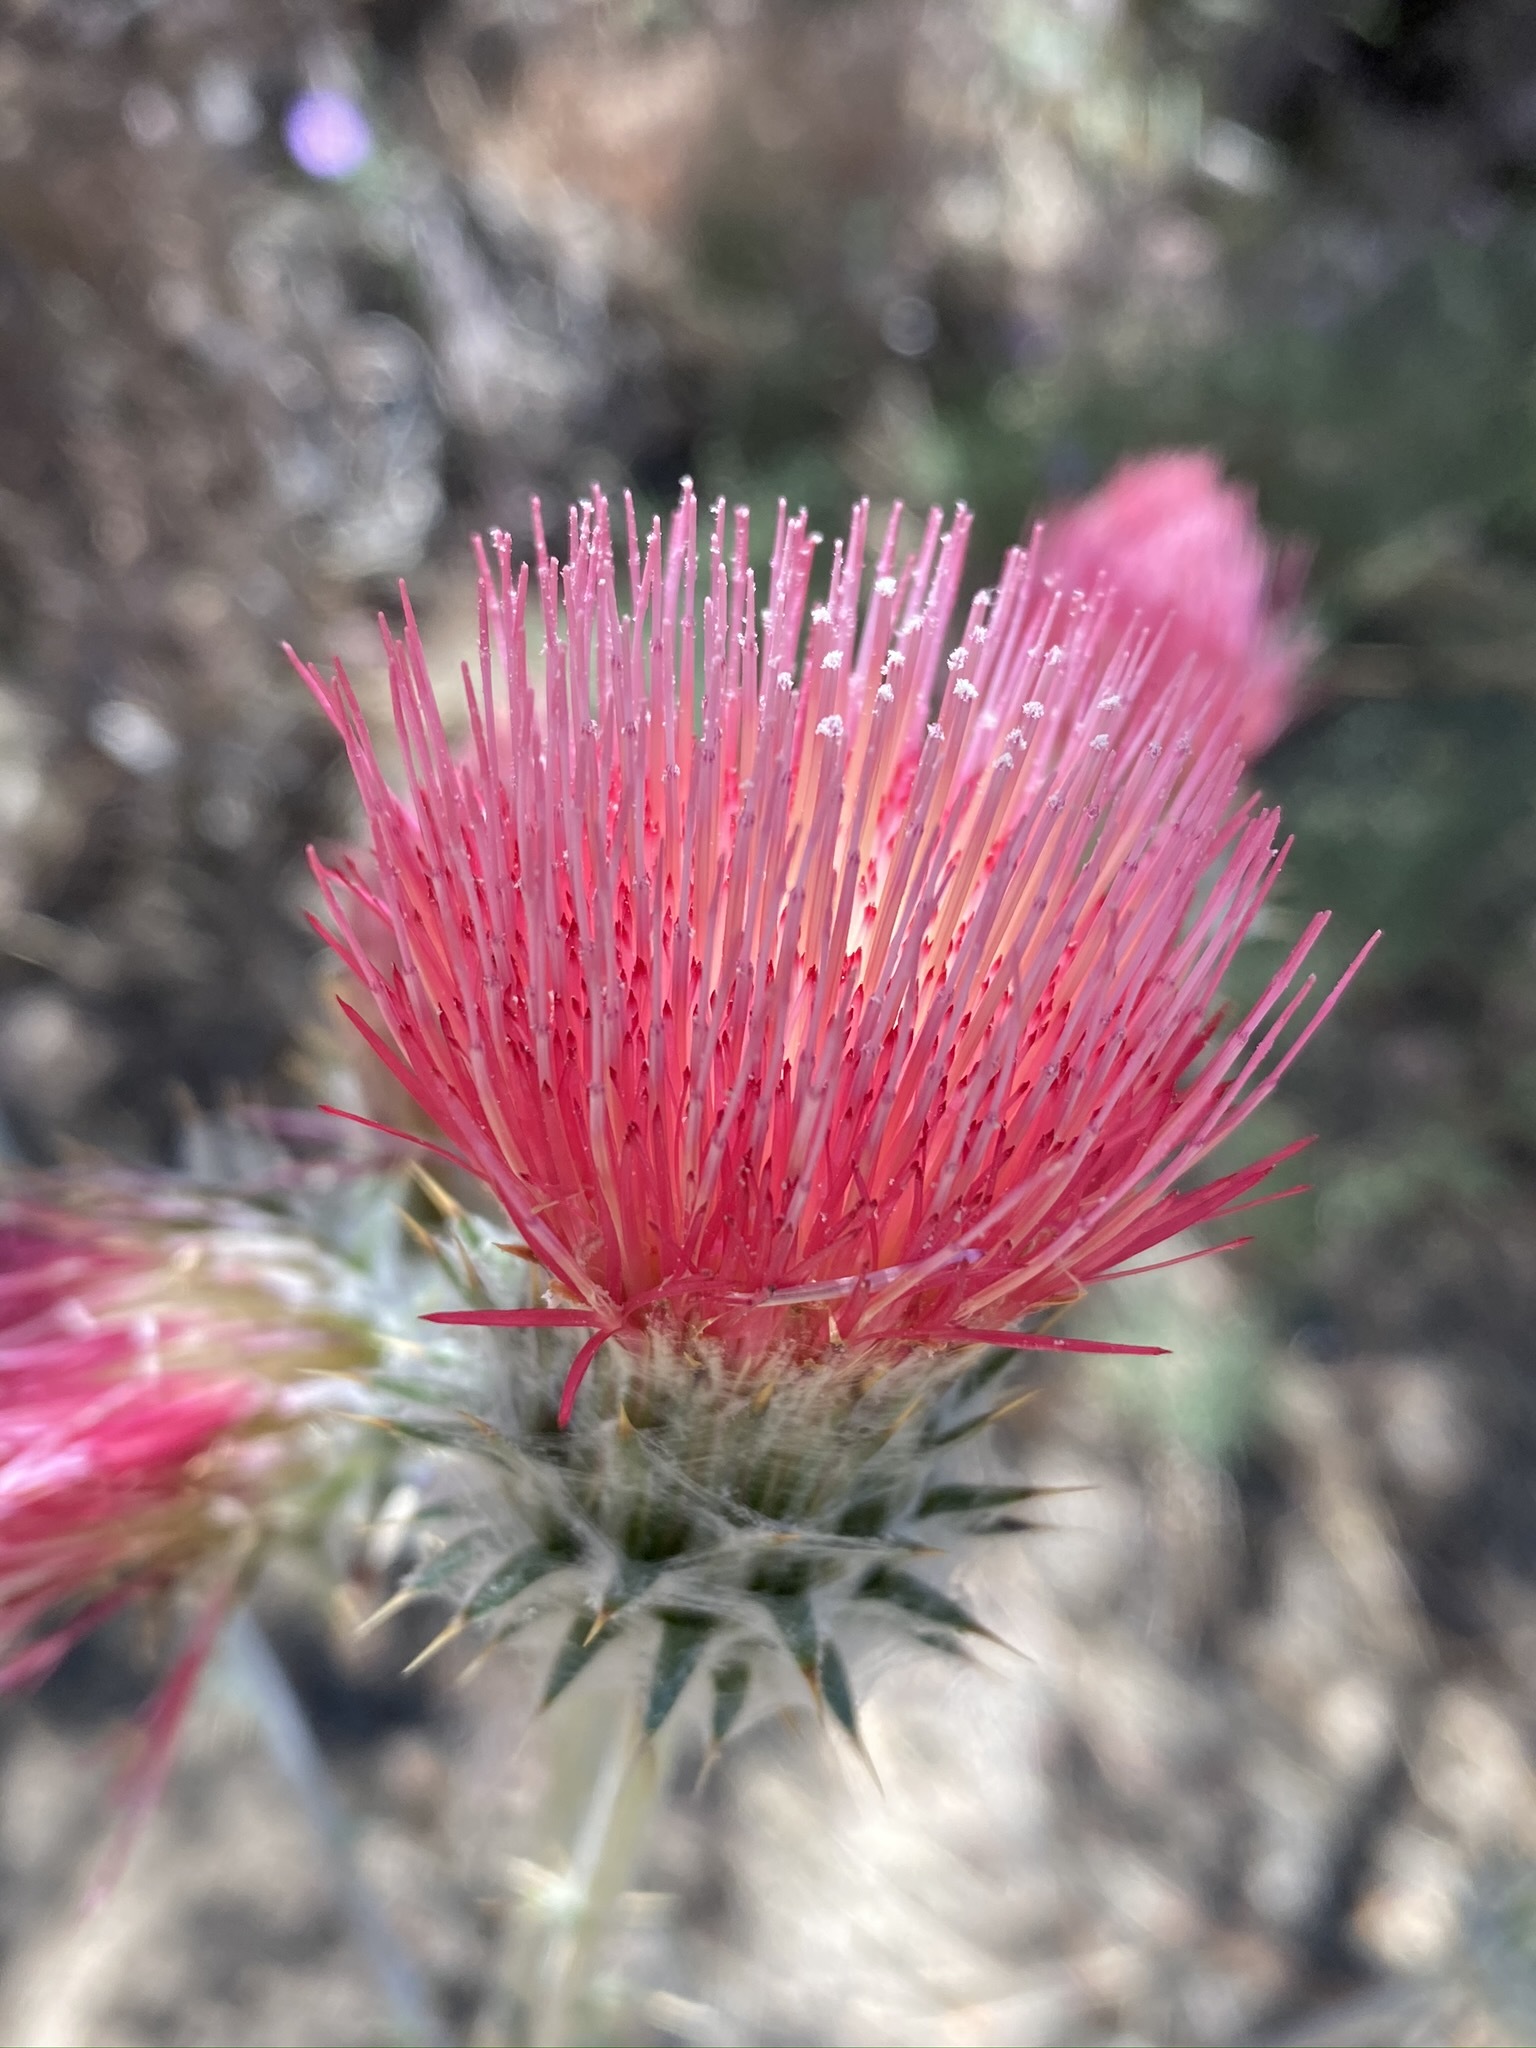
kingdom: Plantae
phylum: Tracheophyta
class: Magnoliopsida
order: Asterales
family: Asteraceae
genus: Cirsium
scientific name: Cirsium occidentale
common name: Western thistle
